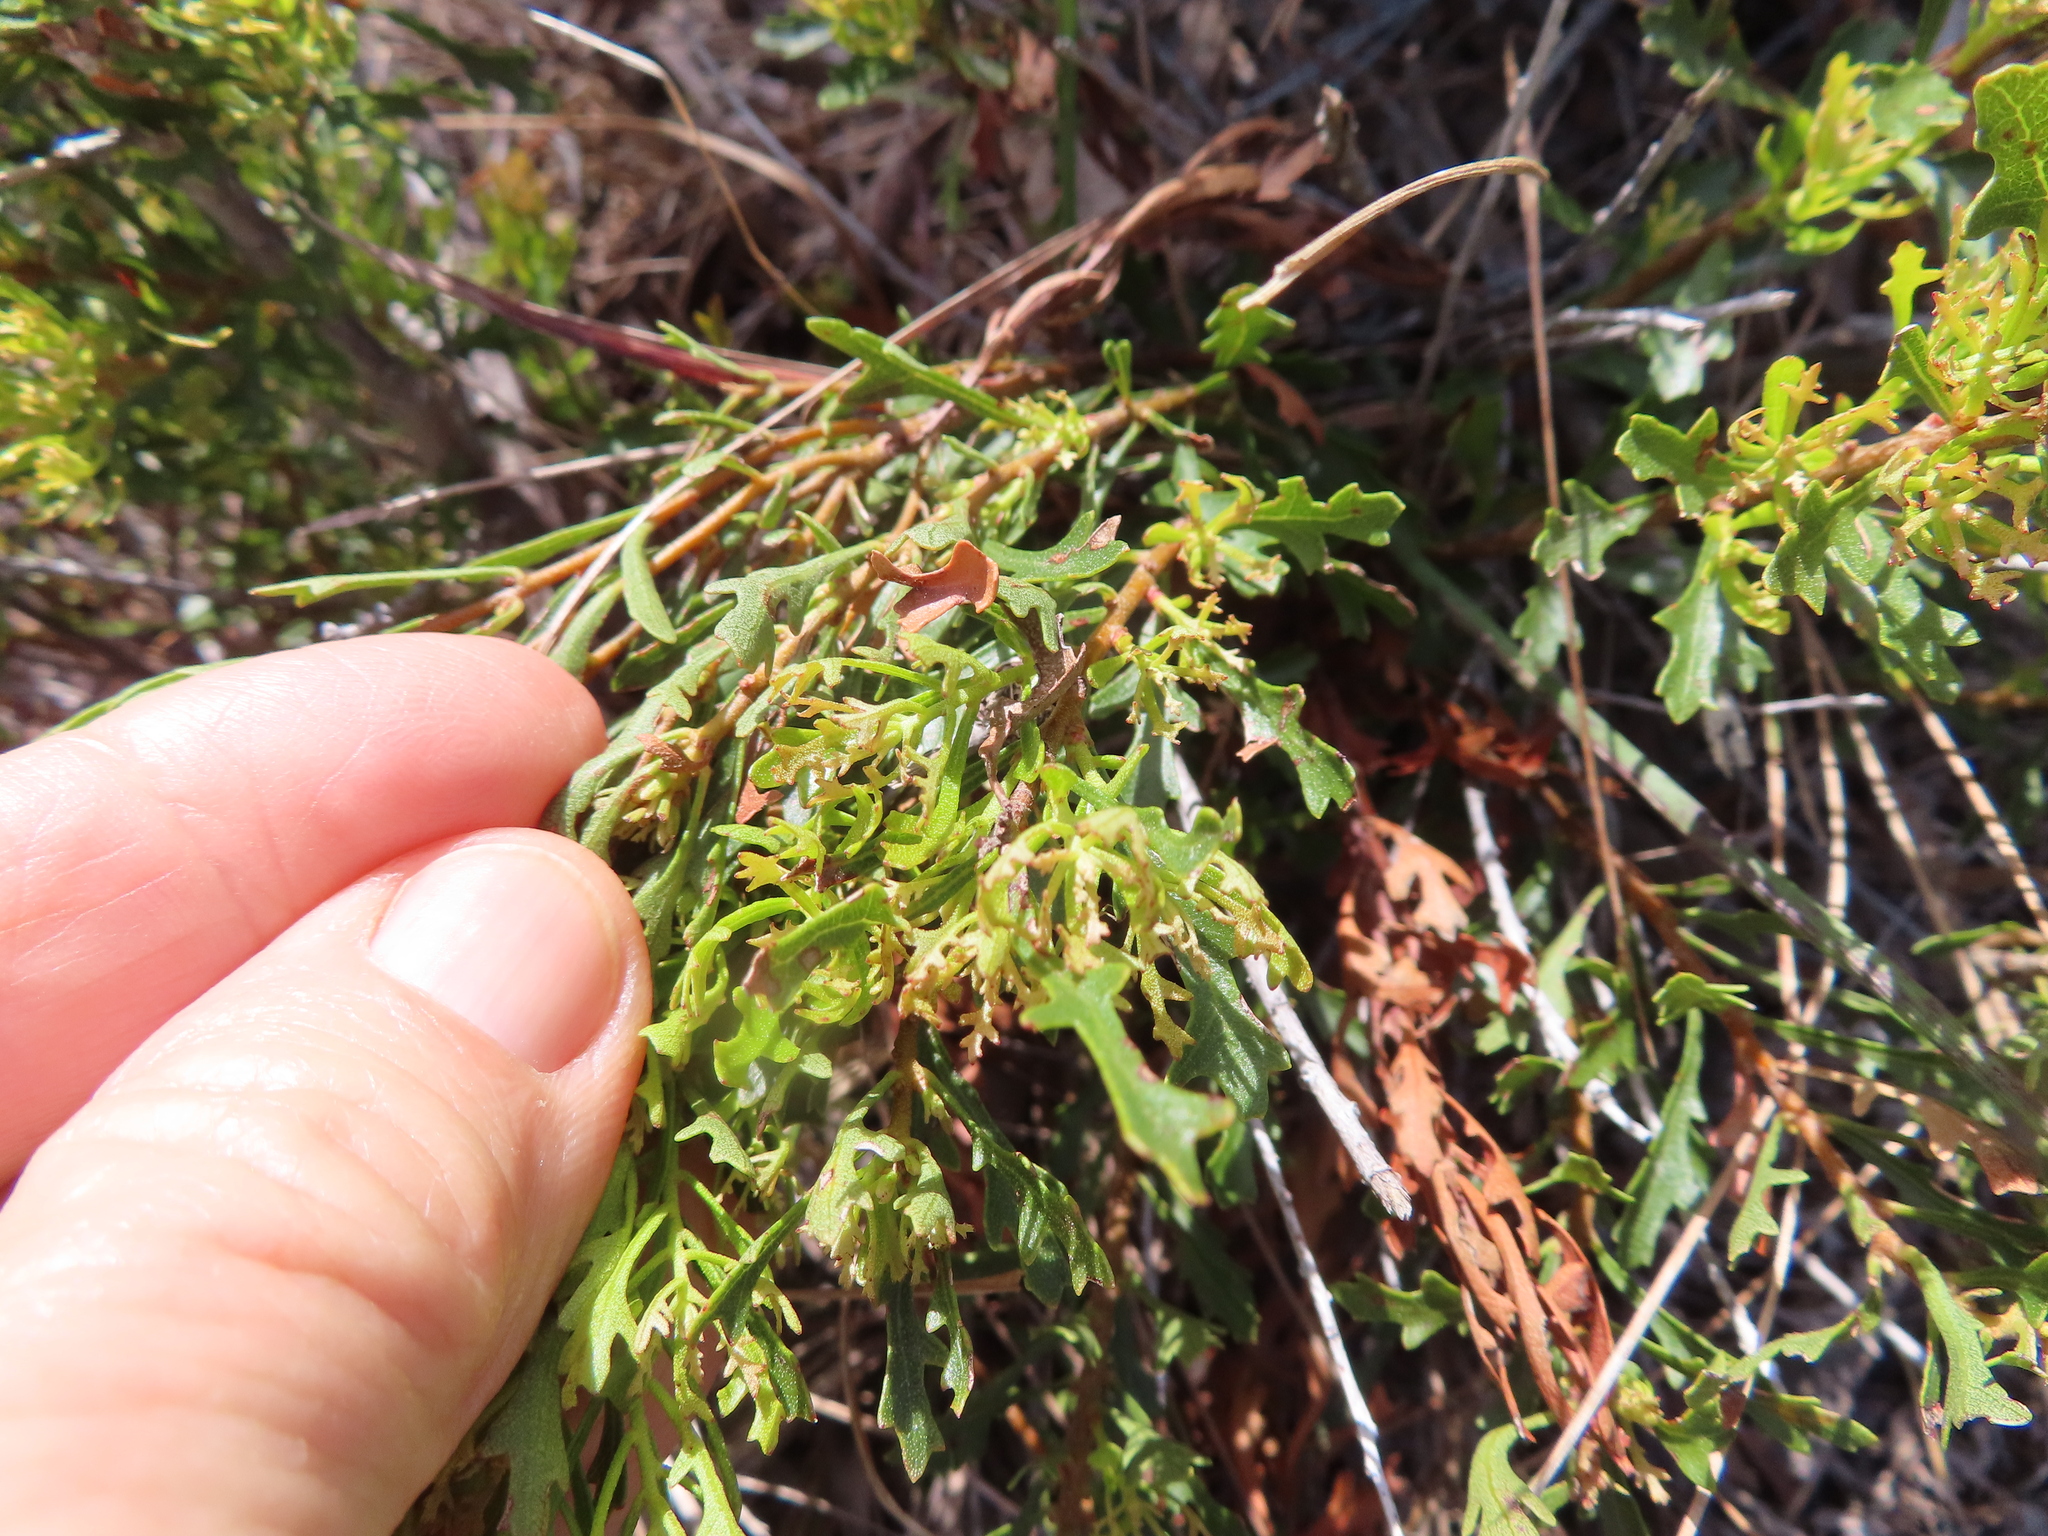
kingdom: Plantae
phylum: Tracheophyta
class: Magnoliopsida
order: Fagales
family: Myricaceae
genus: Morella
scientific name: Morella quercifolia
